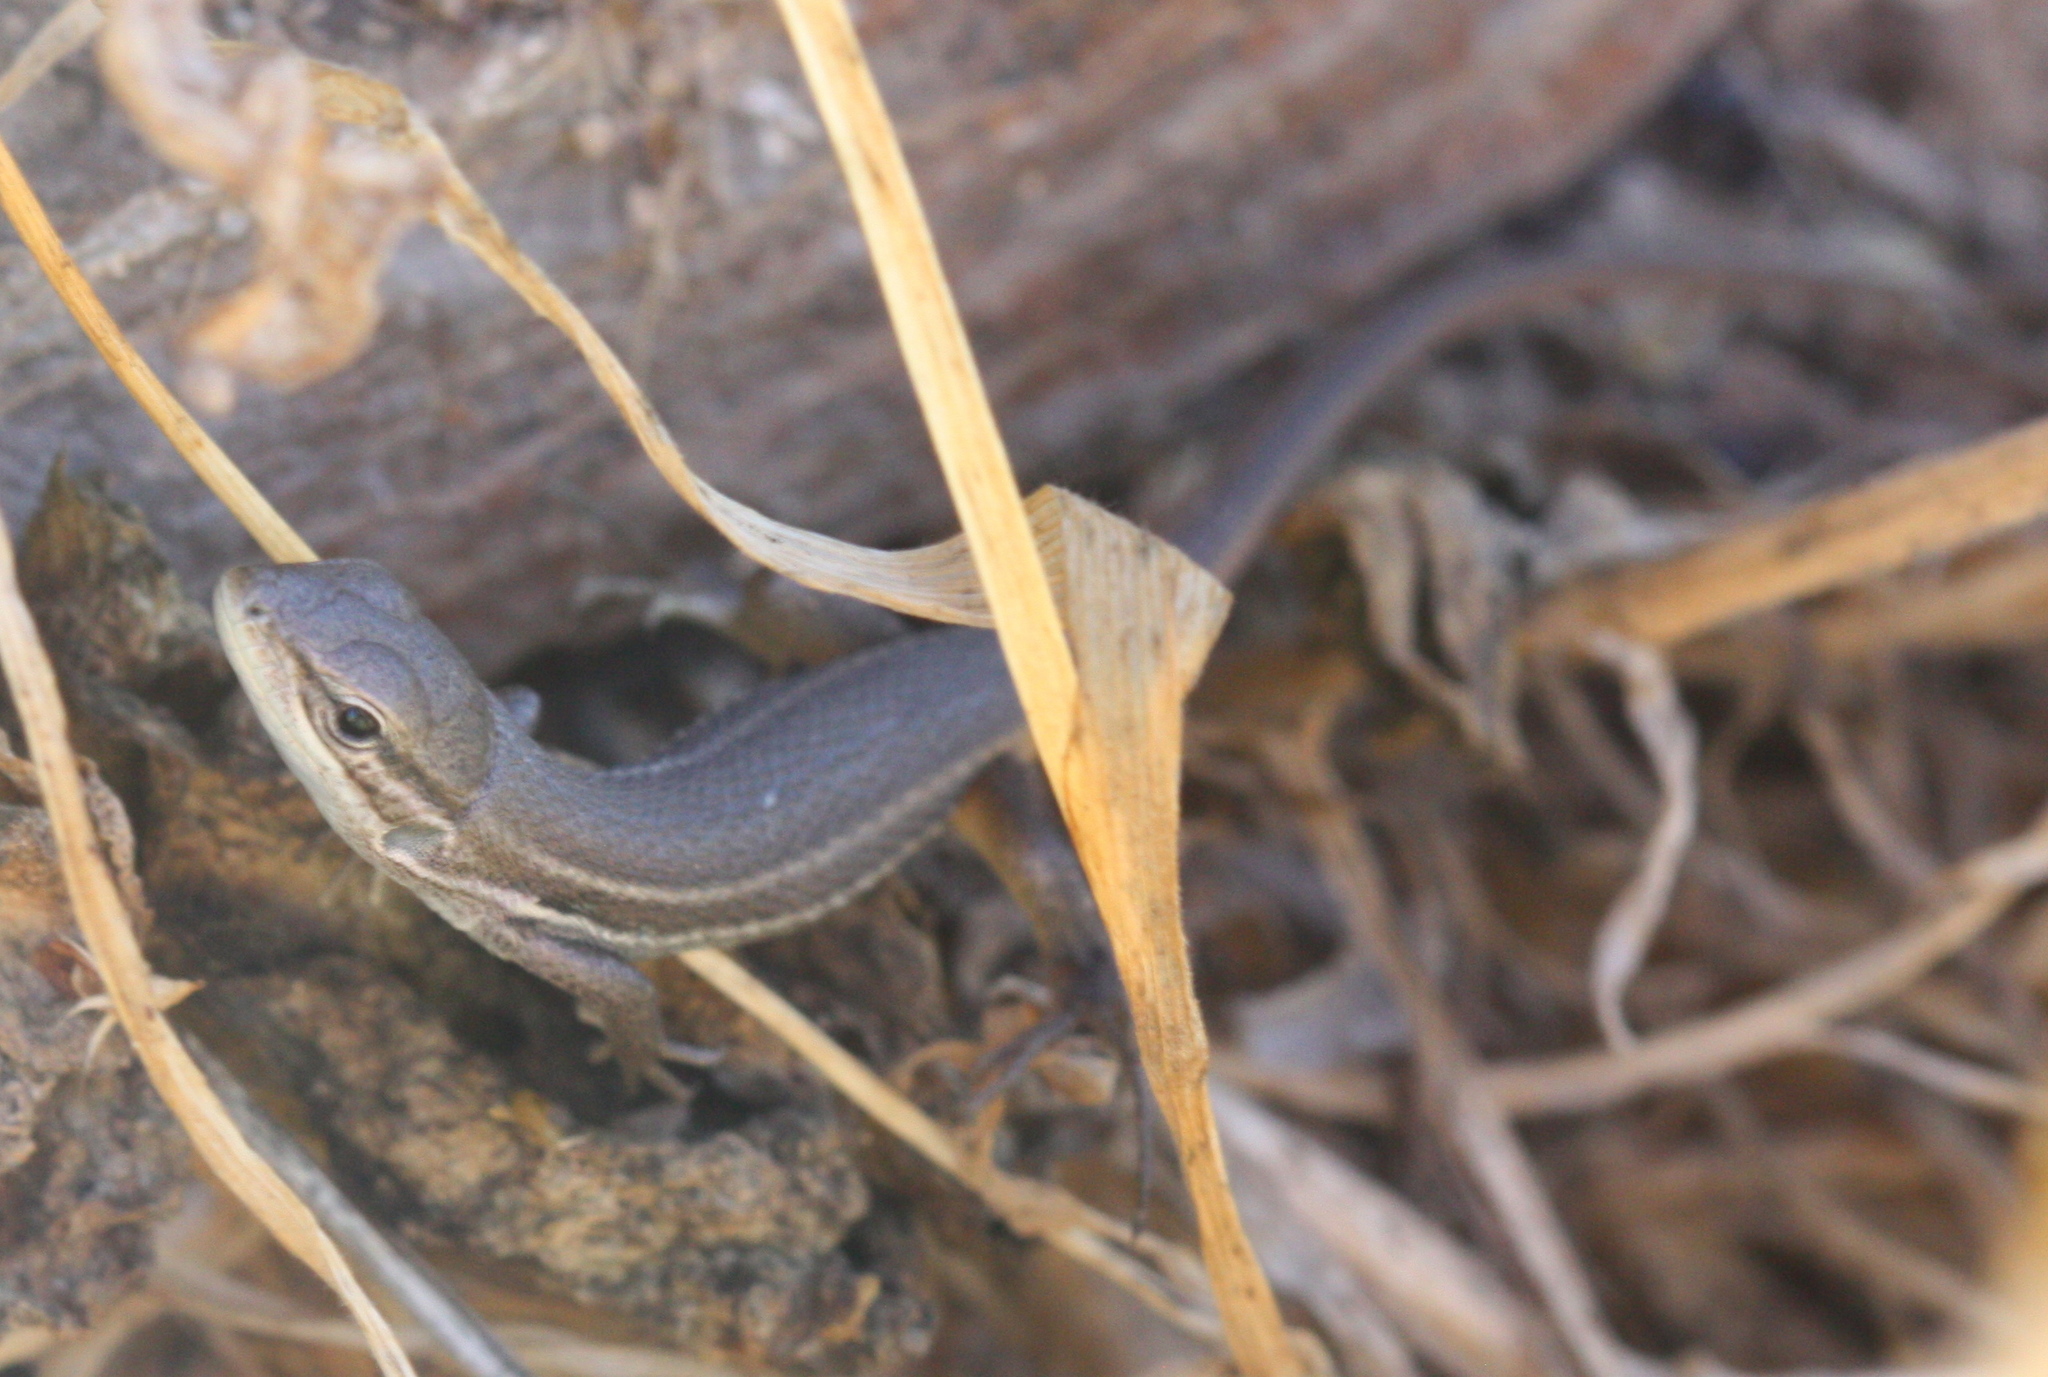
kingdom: Animalia
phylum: Chordata
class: Squamata
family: Lacertidae
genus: Psammodromus
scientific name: Psammodromus algirus
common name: Algerian psammodromus
